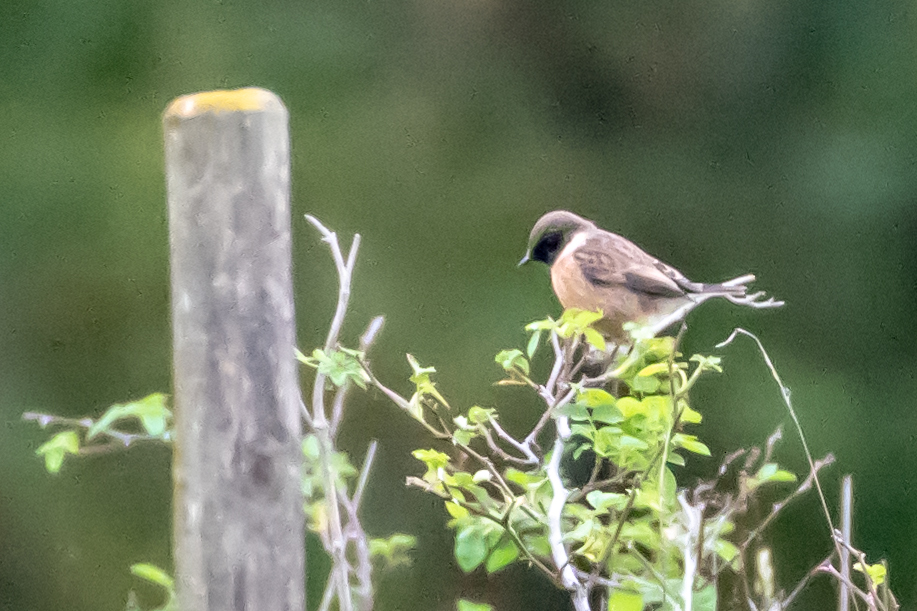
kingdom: Animalia
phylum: Chordata
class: Aves
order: Passeriformes
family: Muscicapidae
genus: Saxicola
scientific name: Saxicola rubicola
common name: European stonechat
